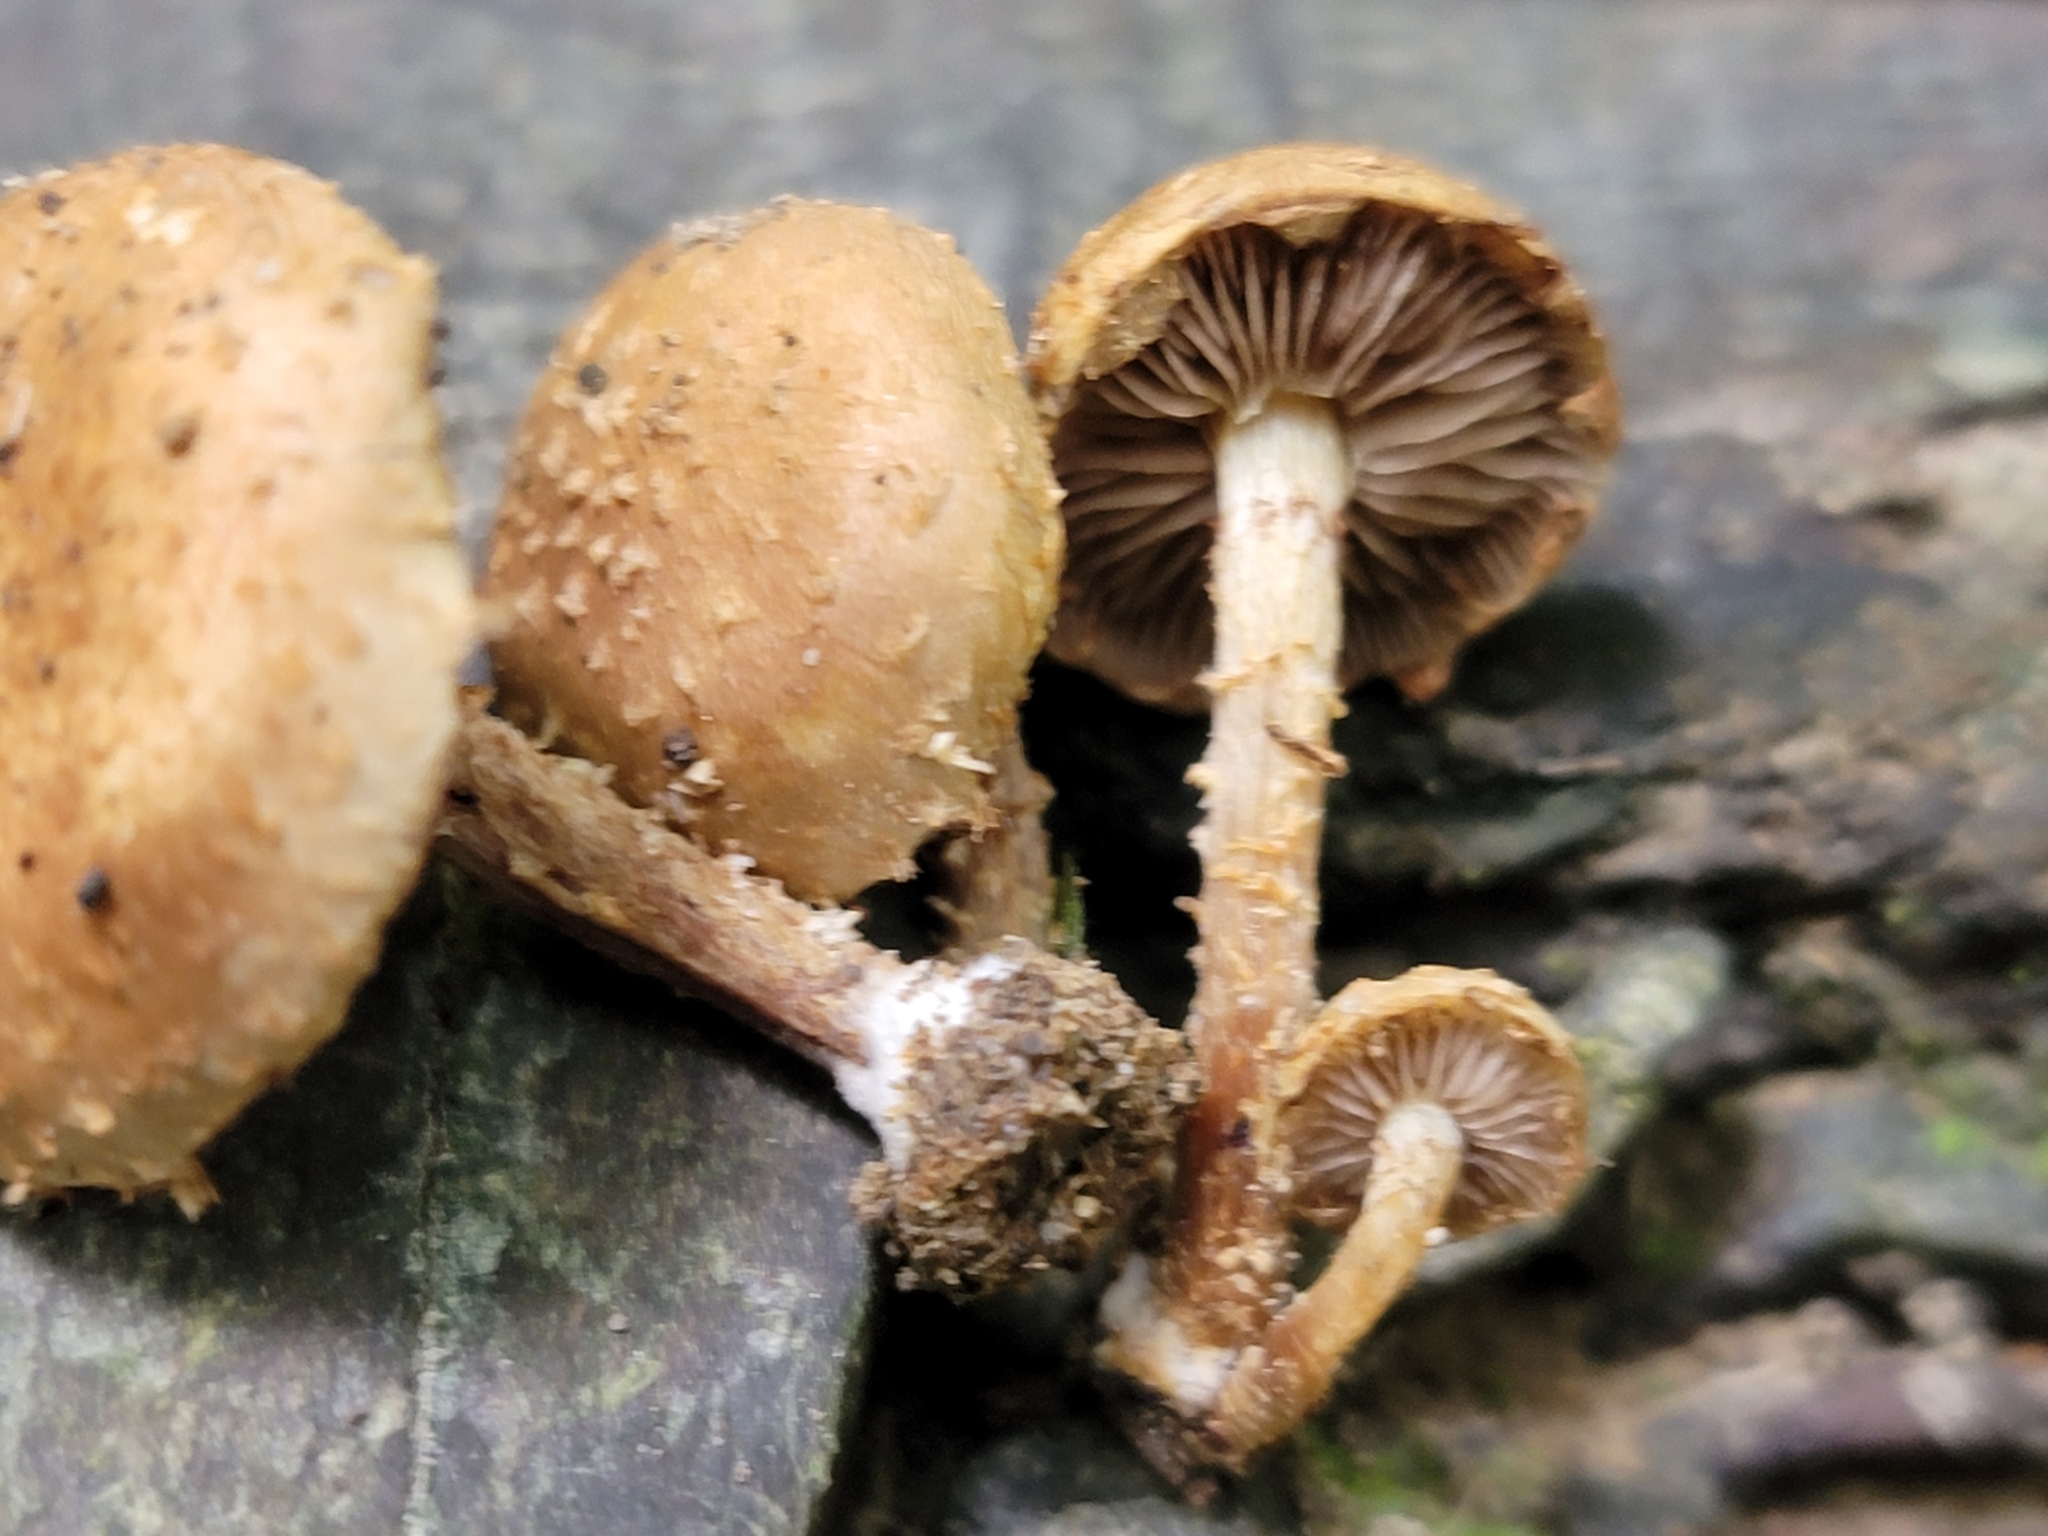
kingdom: Fungi
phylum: Basidiomycota
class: Agaricomycetes
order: Agaricales
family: Strophariaceae
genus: Pholiota
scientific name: Pholiota subflammans
